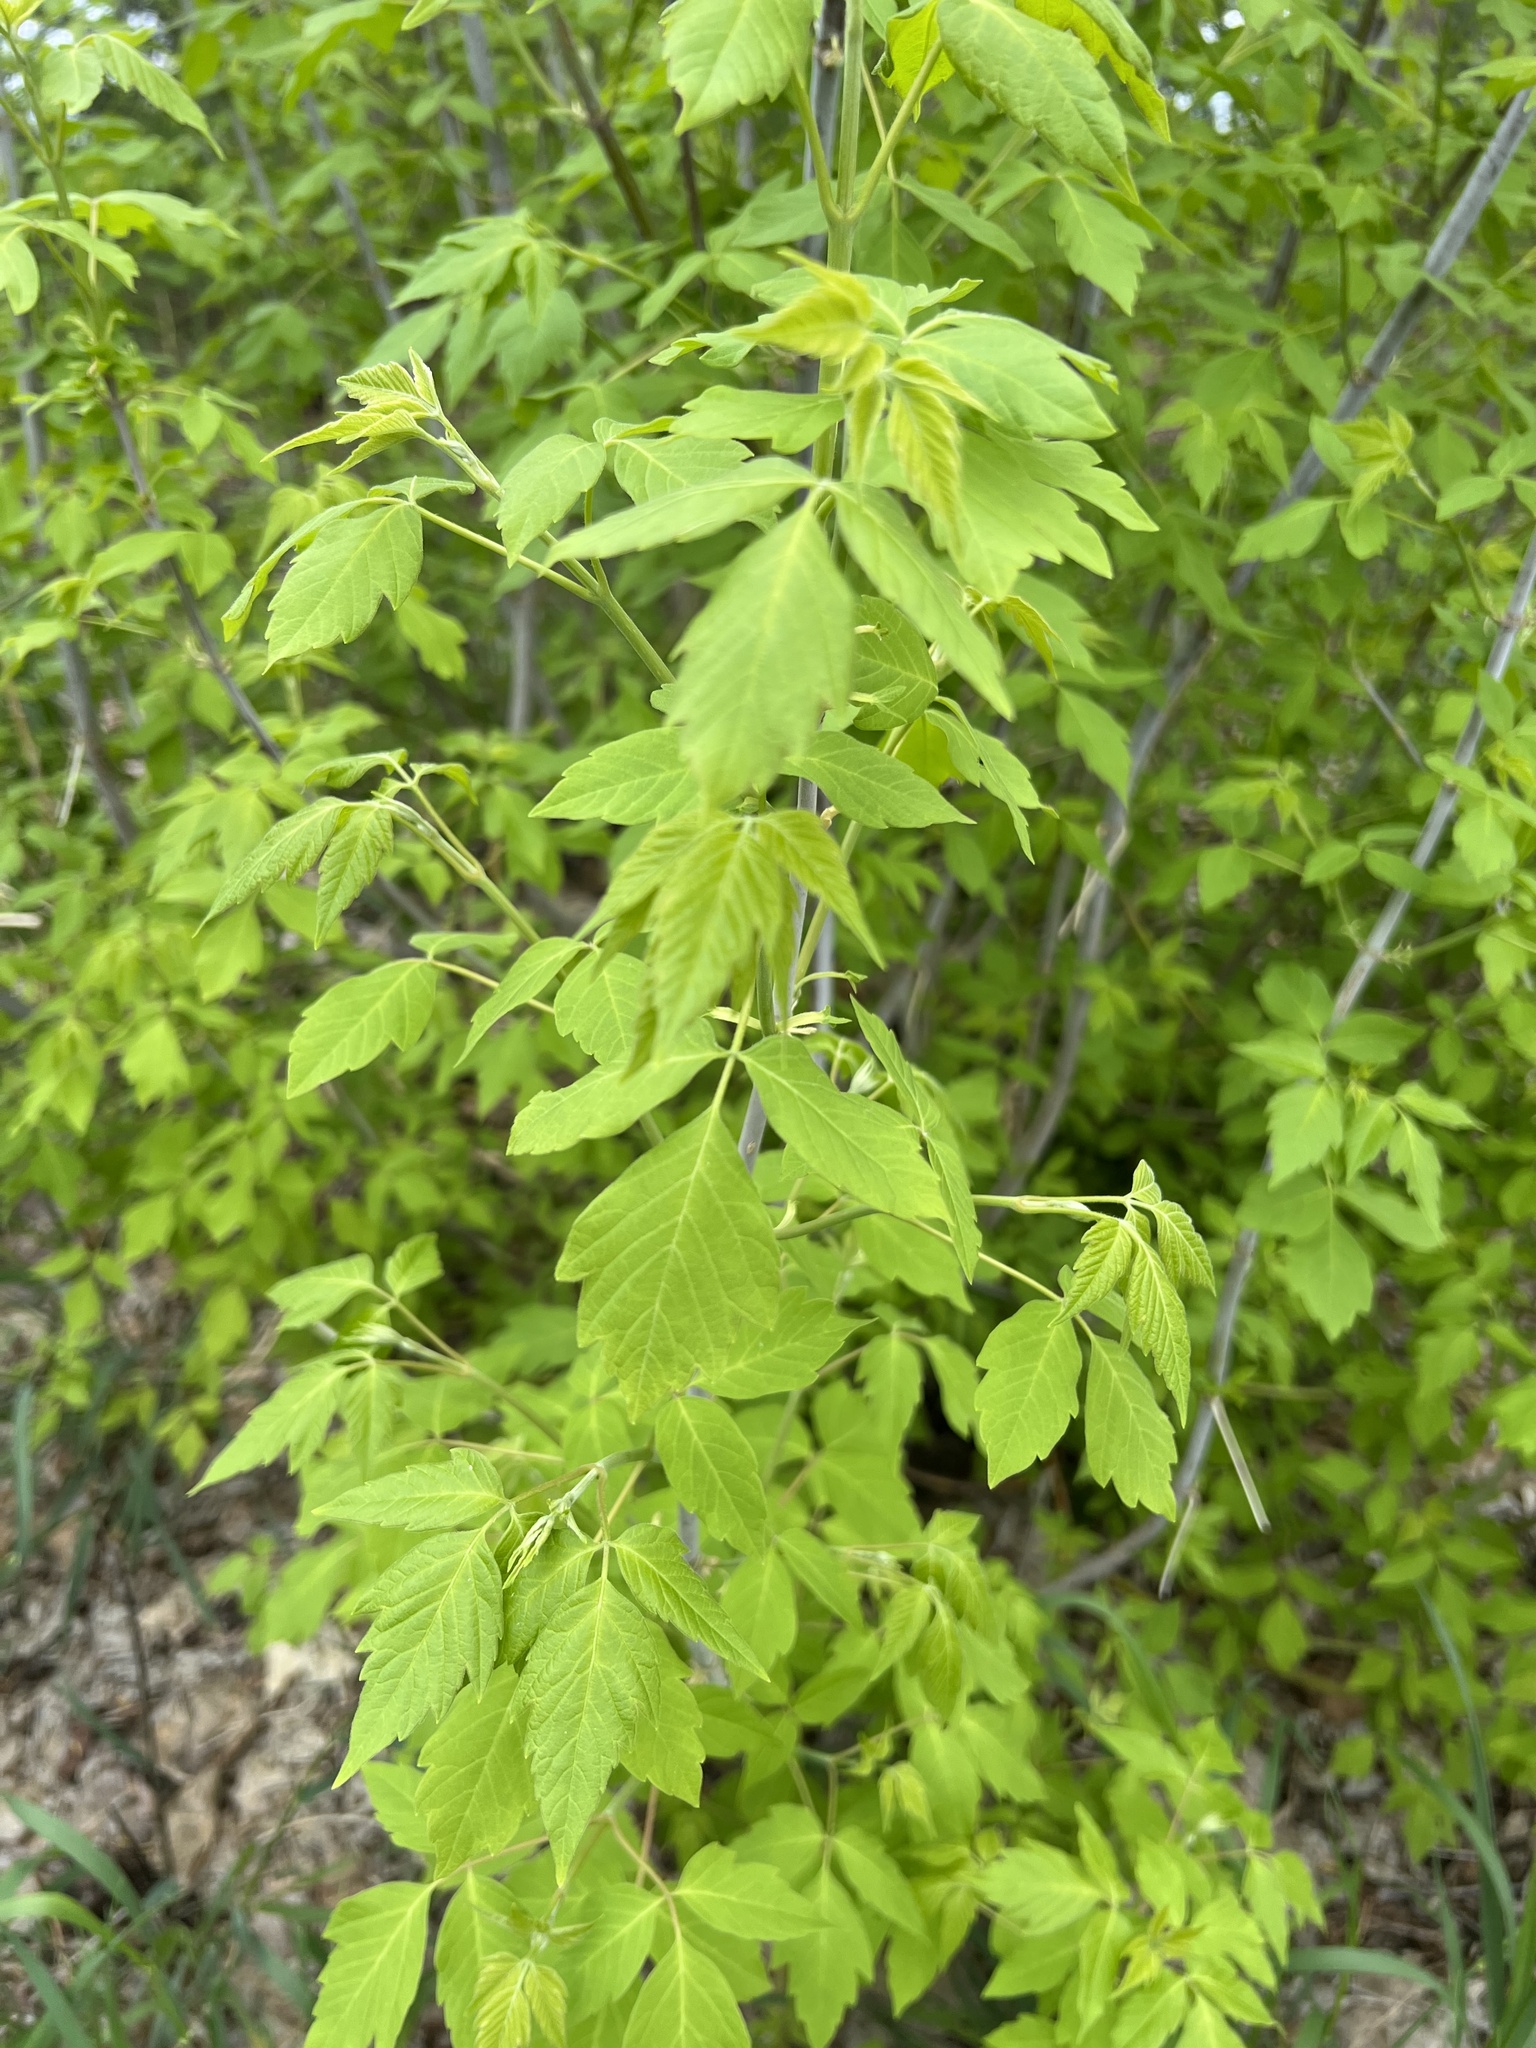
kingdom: Plantae
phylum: Tracheophyta
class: Magnoliopsida
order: Sapindales
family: Sapindaceae
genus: Acer
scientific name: Acer negundo
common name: Ashleaf maple
